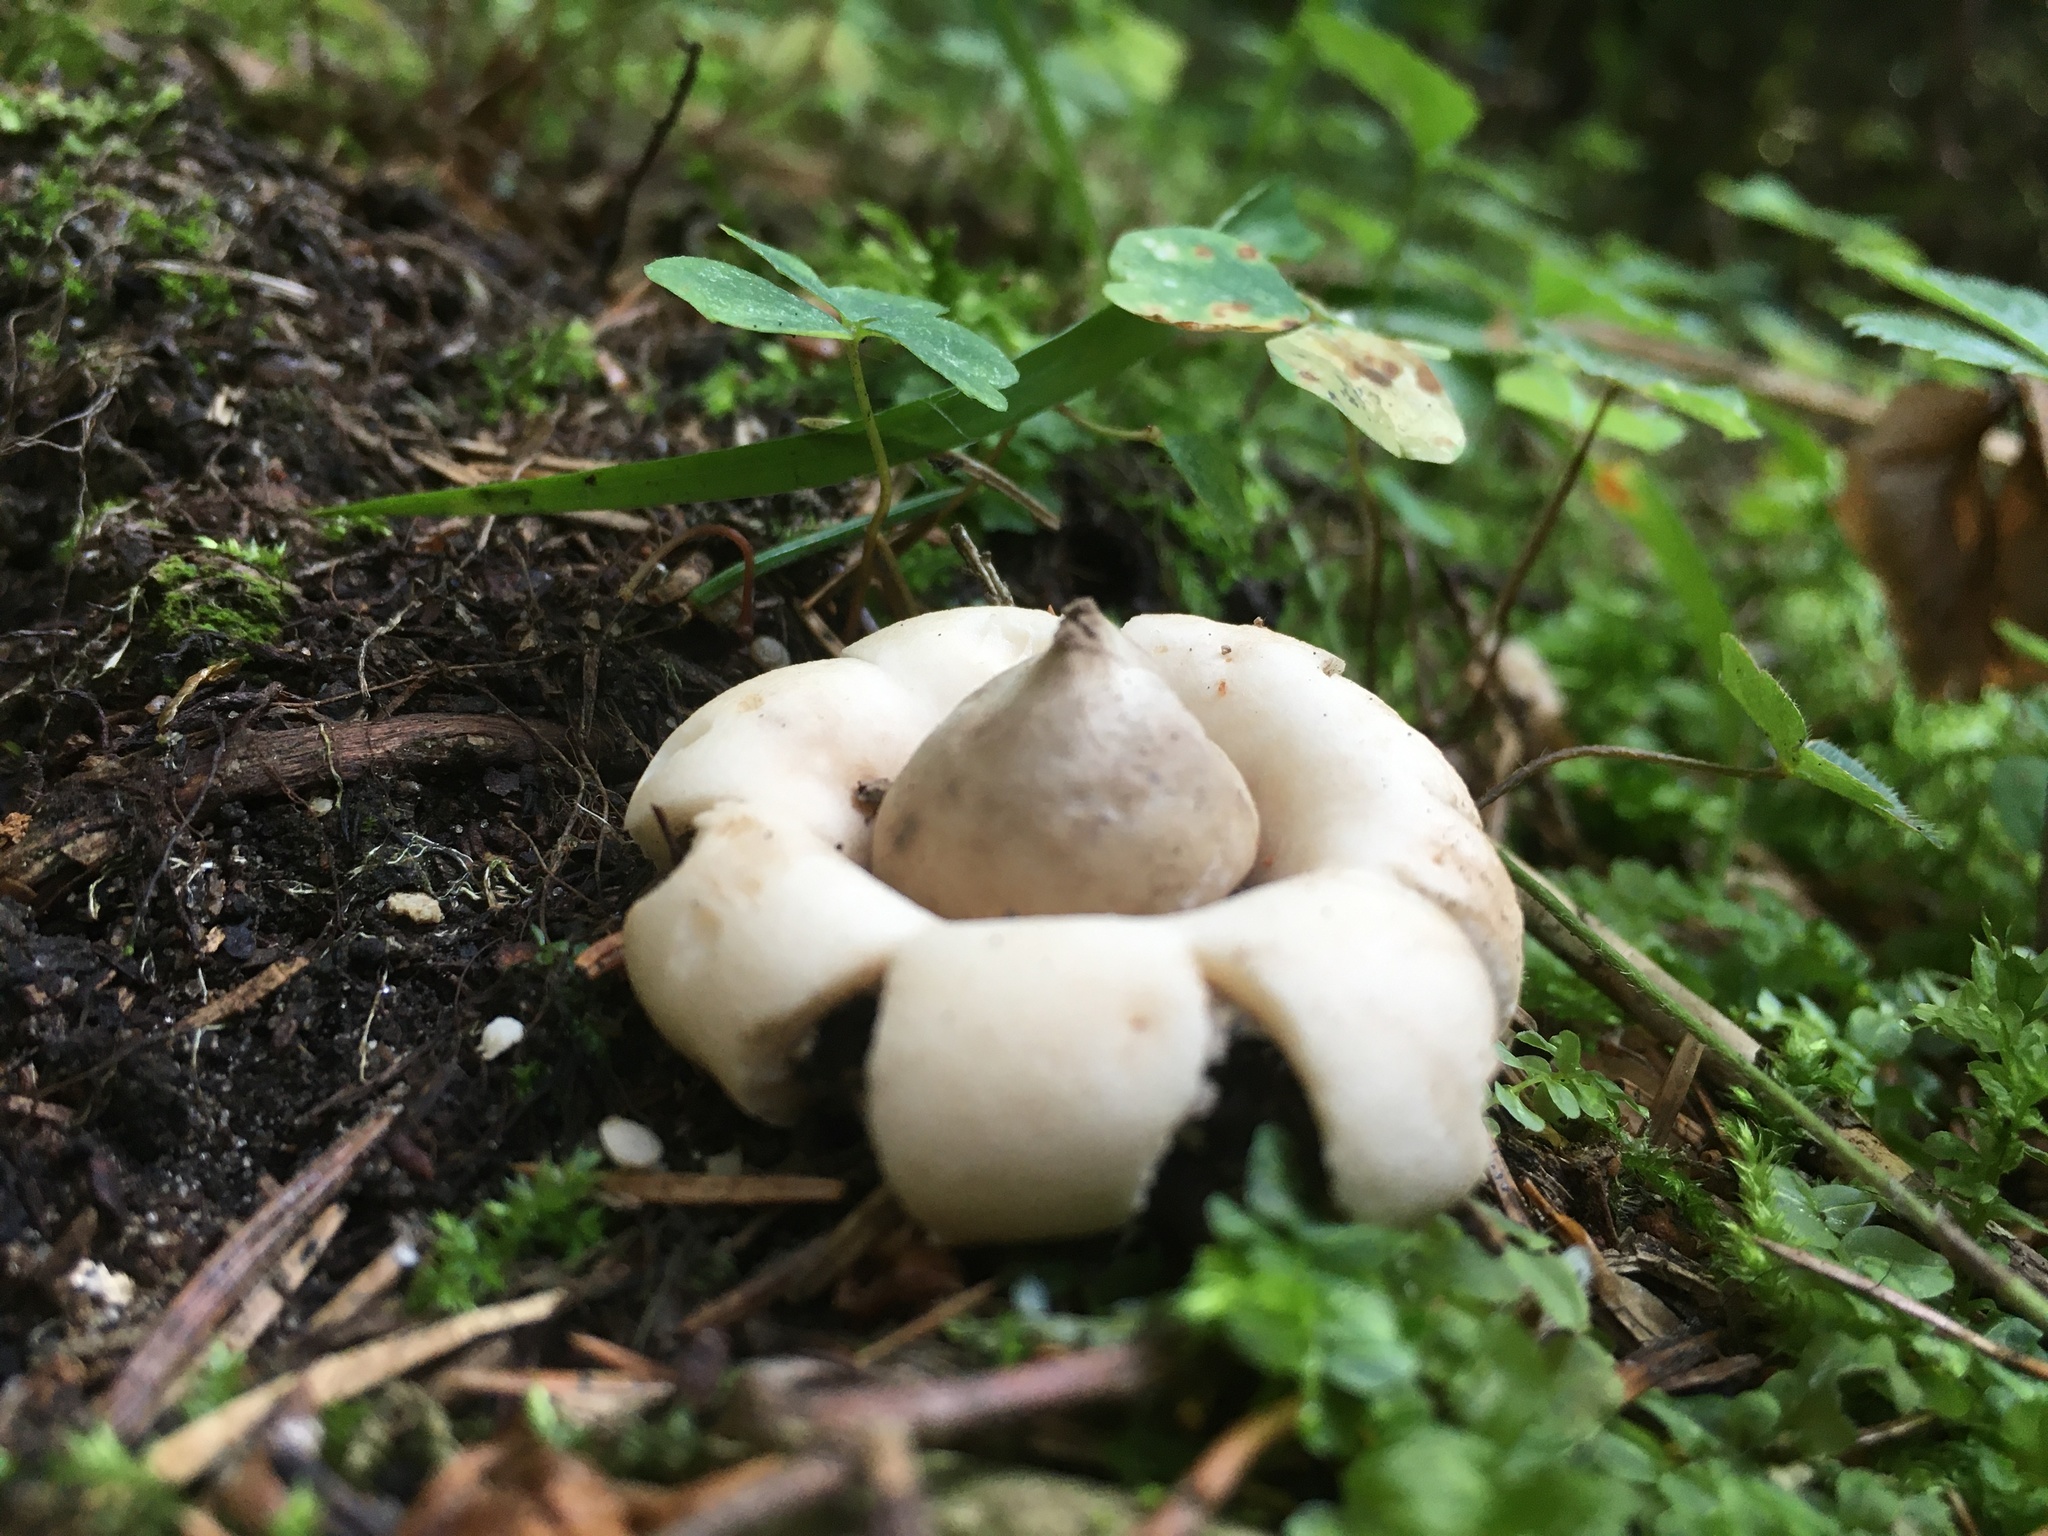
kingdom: Fungi
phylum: Basidiomycota
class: Agaricomycetes
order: Geastrales
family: Geastraceae
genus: Geastrum
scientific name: Geastrum fimbriatum
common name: Sessile earthstar
